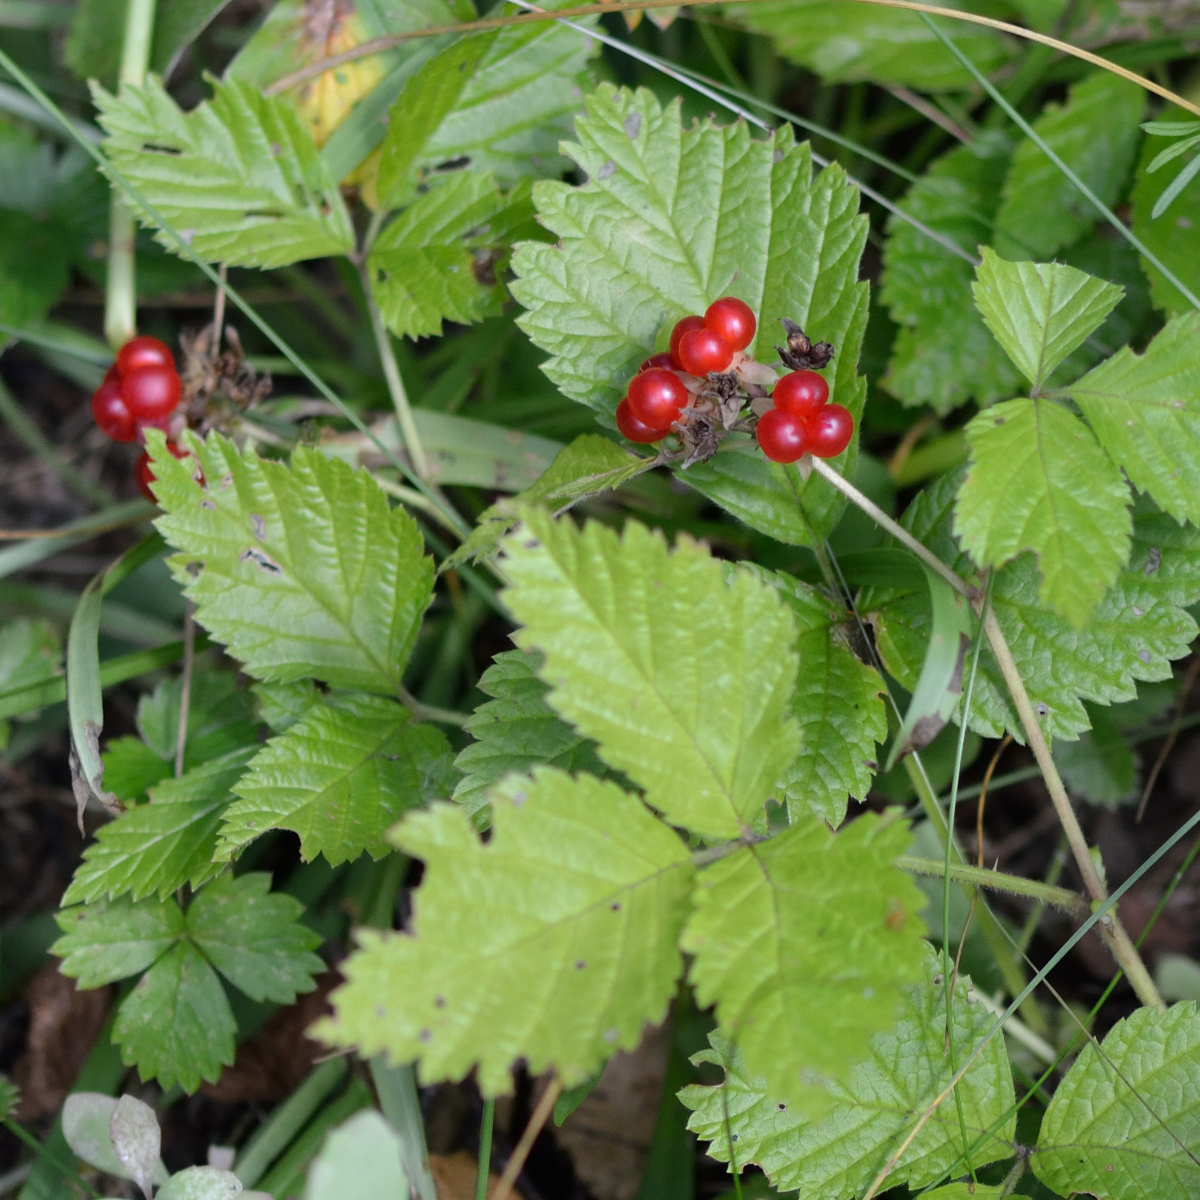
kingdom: Plantae
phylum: Tracheophyta
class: Magnoliopsida
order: Rosales
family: Rosaceae
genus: Rubus
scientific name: Rubus saxatilis
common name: Stone bramble
